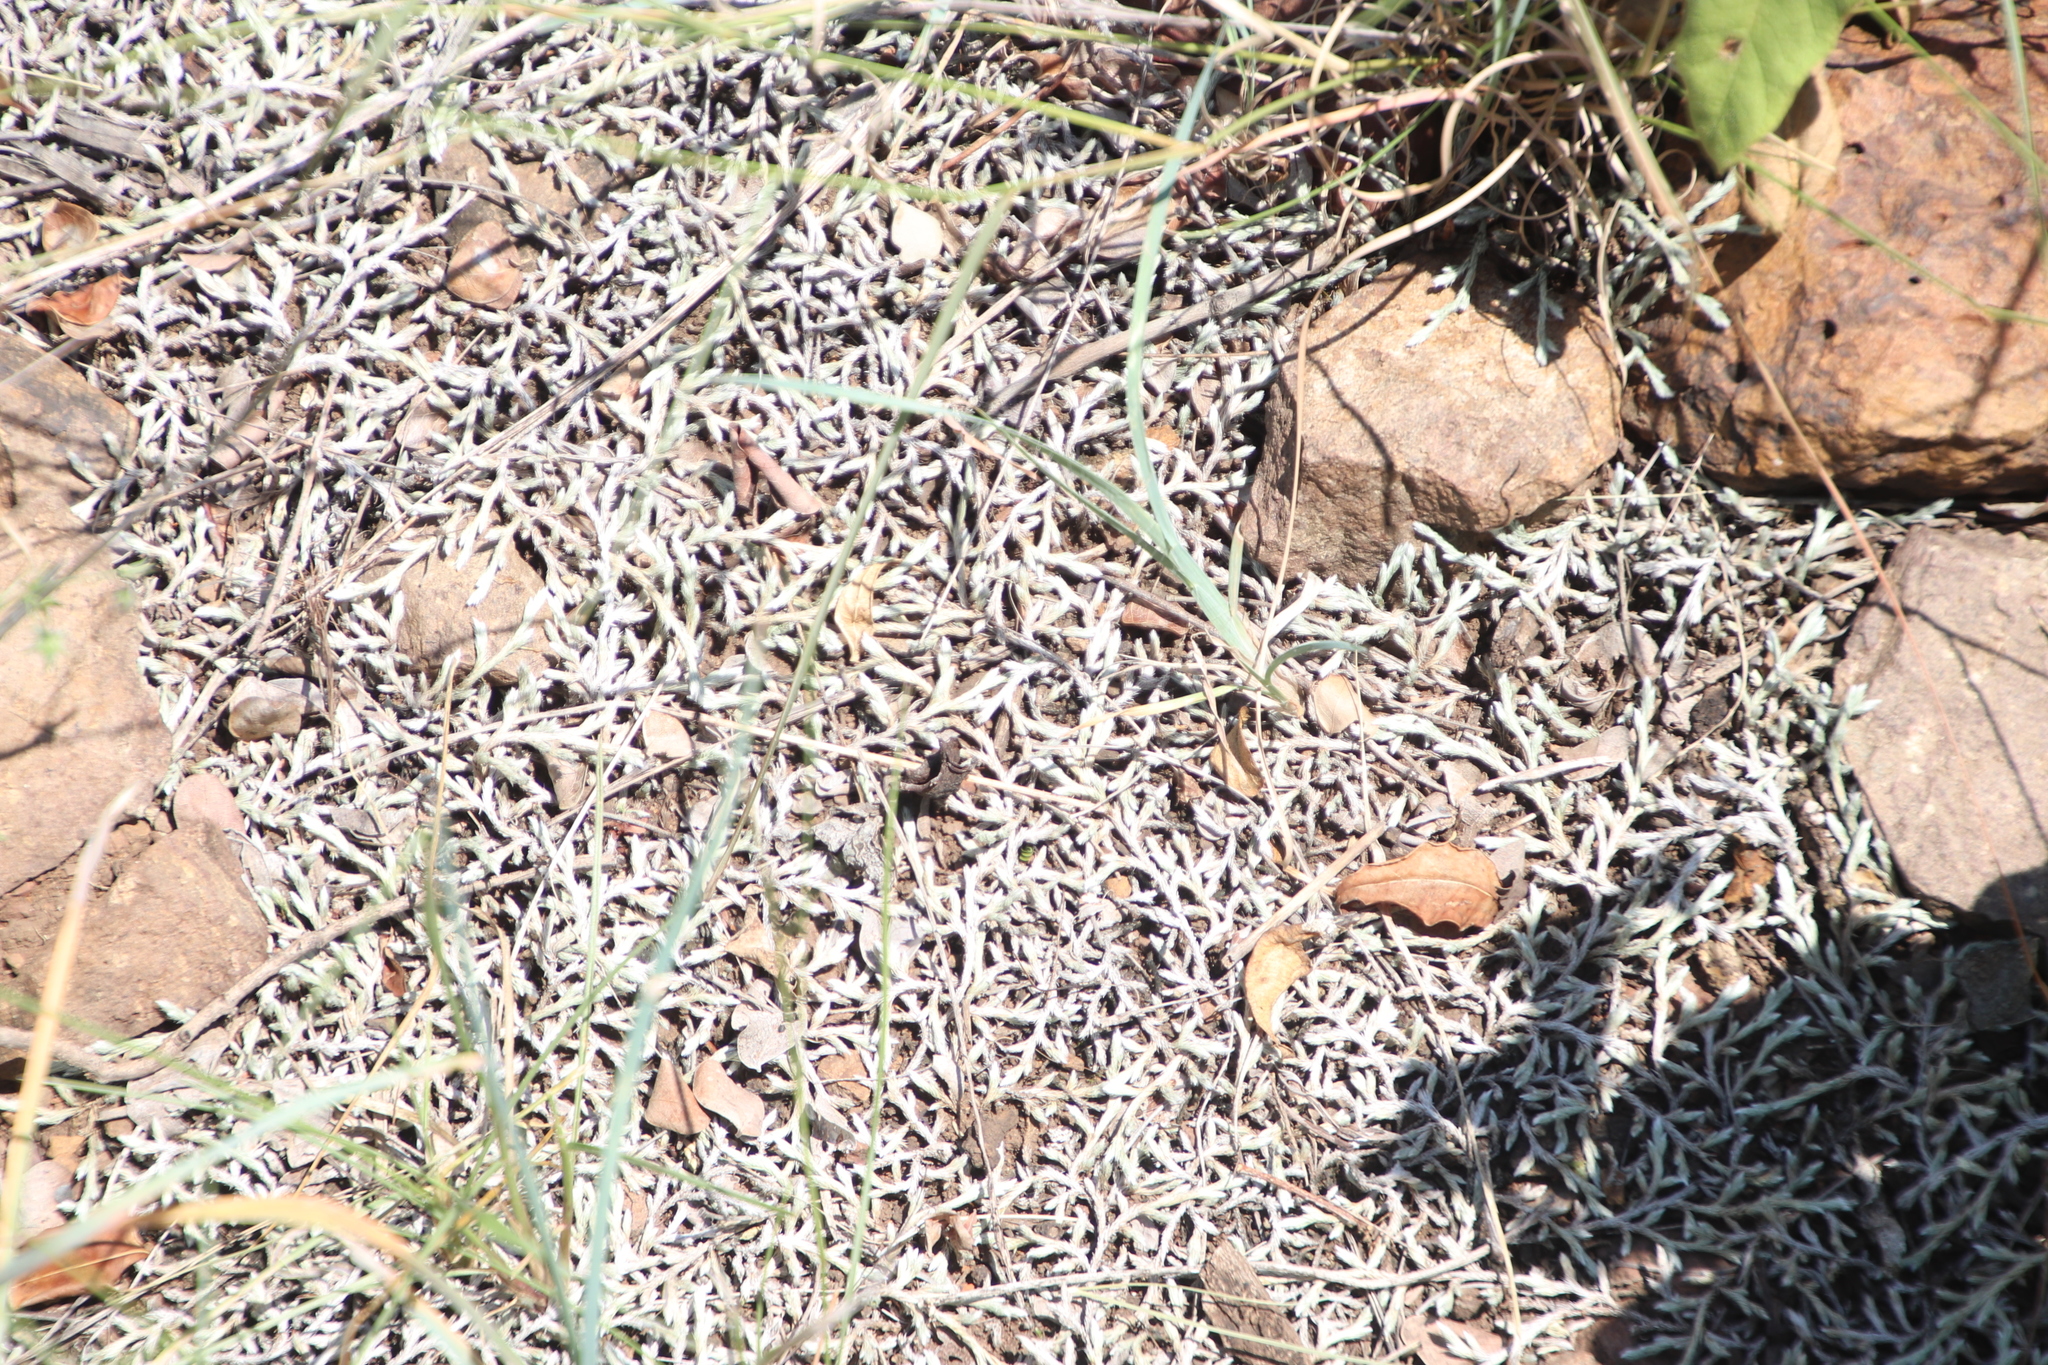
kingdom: Plantae
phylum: Tracheophyta
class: Lycopodiopsida
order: Selaginellales
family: Selaginellaceae
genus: Selaginella
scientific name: Selaginella dregei
